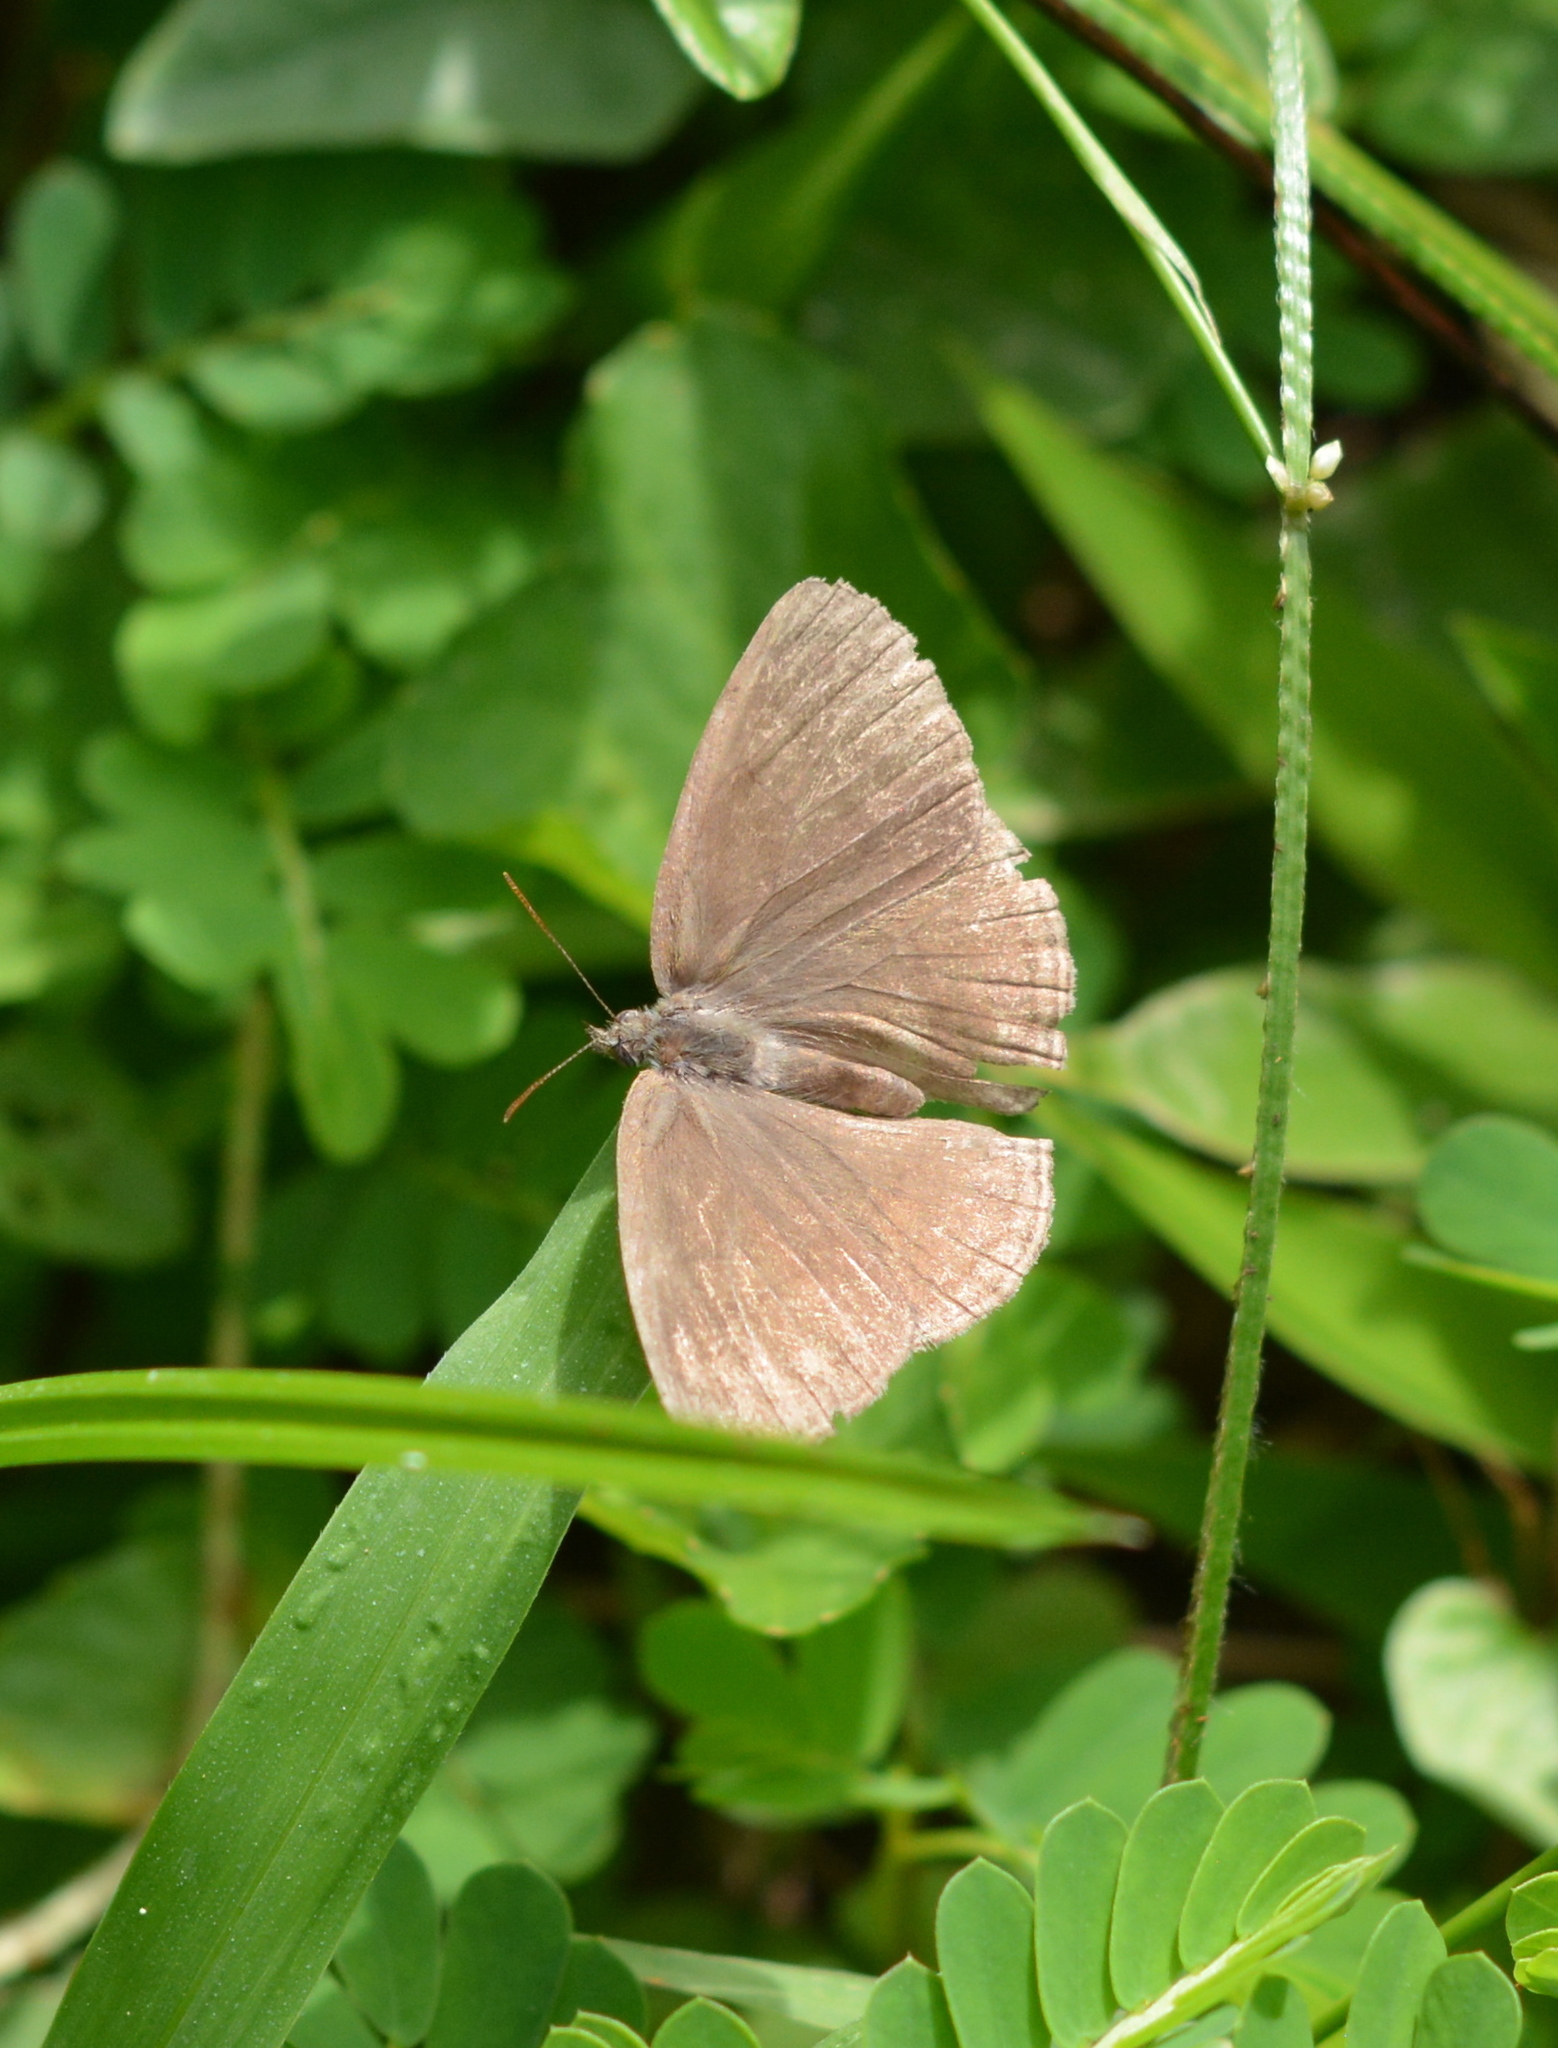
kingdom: Animalia
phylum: Arthropoda
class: Insecta
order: Lepidoptera
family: Nymphalidae
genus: Hermeuptychia
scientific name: Hermeuptychia hermes
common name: Hermes satyr
